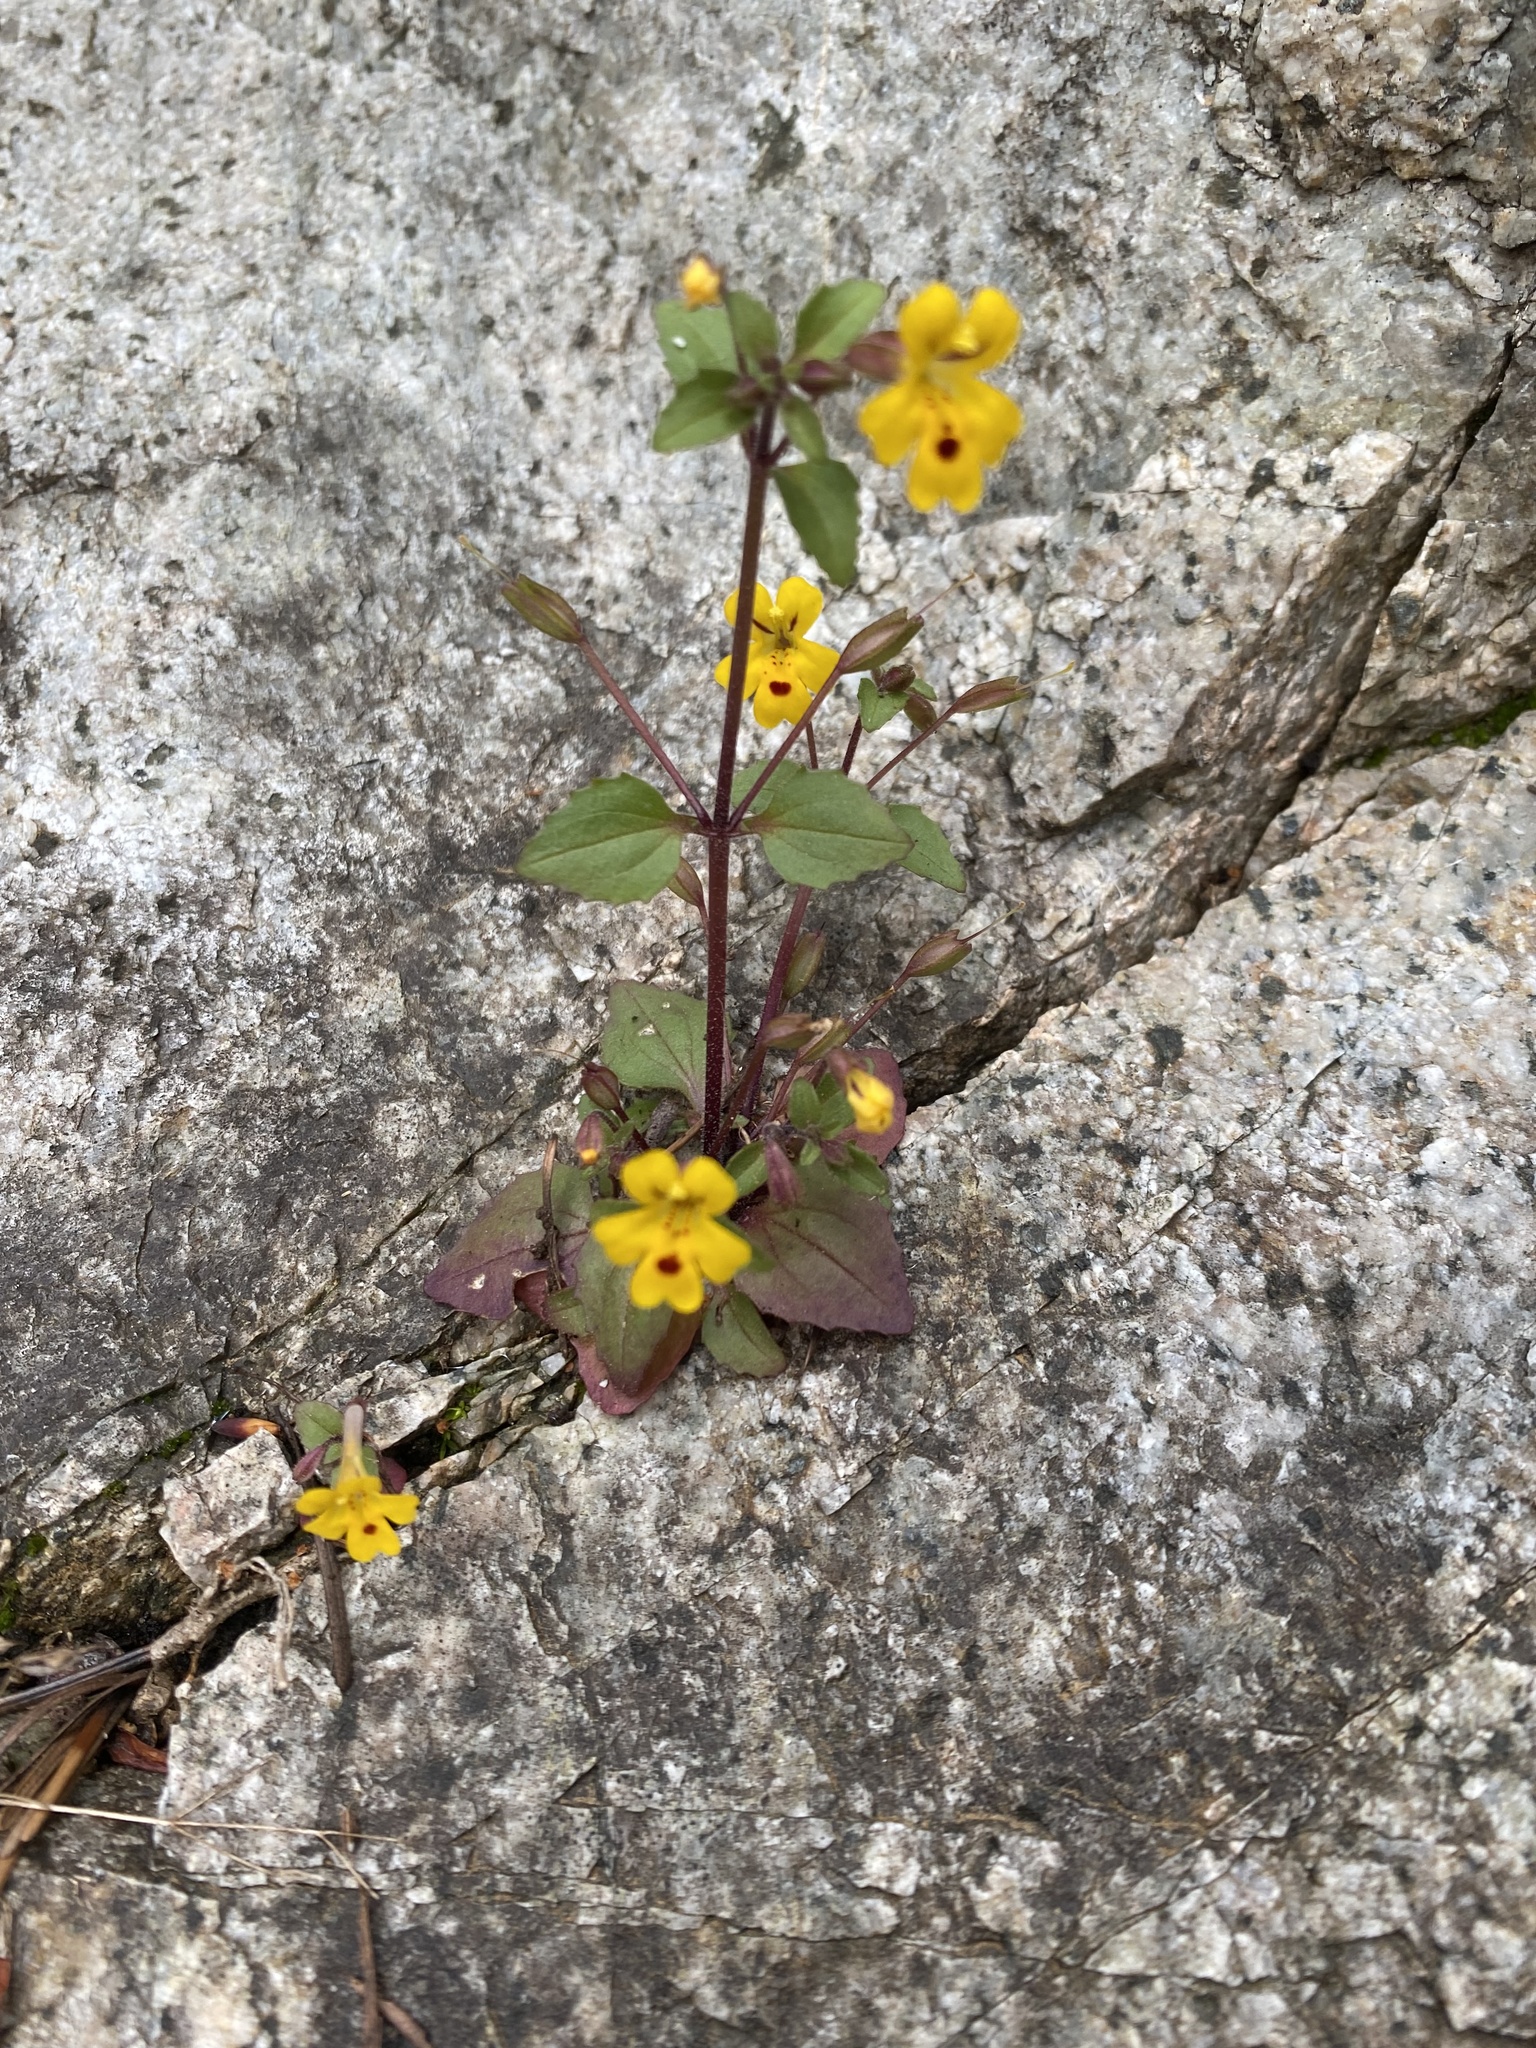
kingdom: Plantae
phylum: Tracheophyta
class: Magnoliopsida
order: Lamiales
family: Phrymaceae
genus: Erythranthe
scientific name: Erythranthe alsinoides
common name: Chickweed monkeyflower
